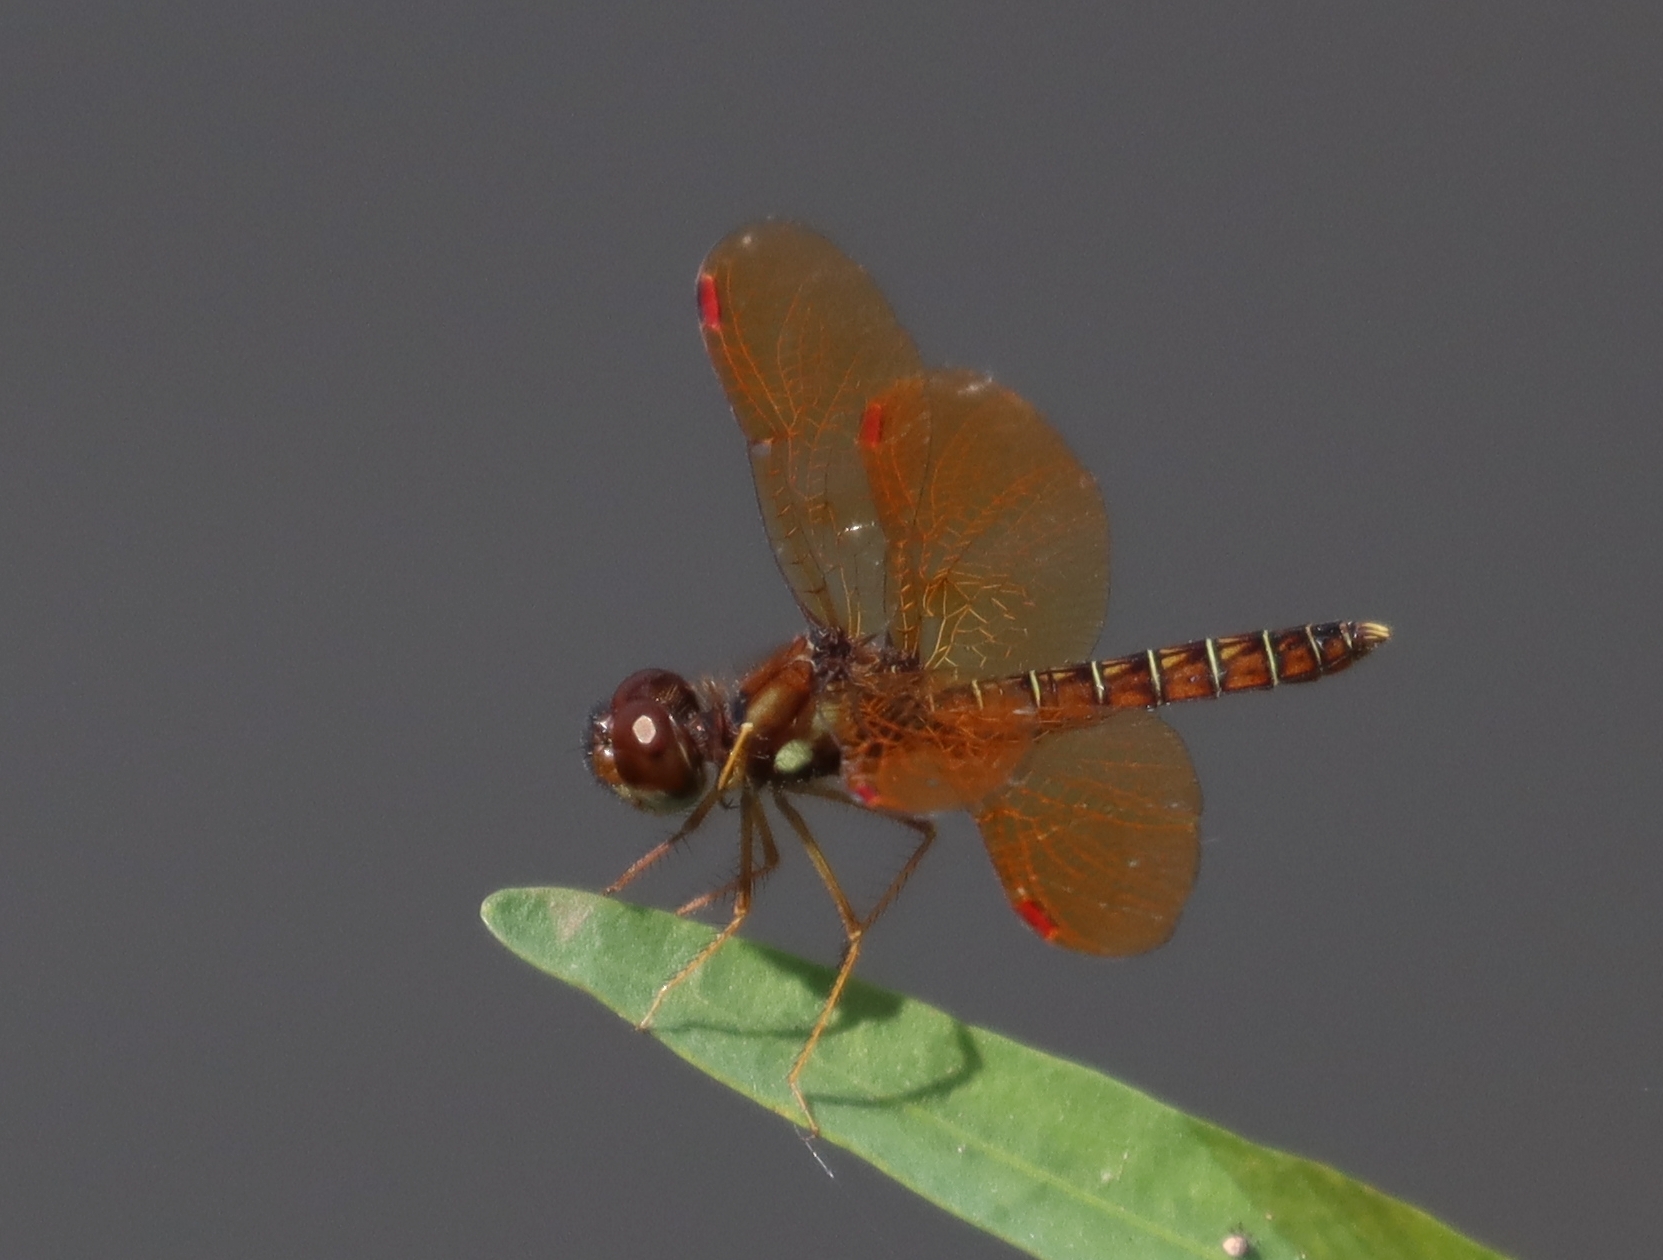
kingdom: Animalia
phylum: Arthropoda
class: Insecta
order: Odonata
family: Libellulidae
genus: Perithemis
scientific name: Perithemis tenera
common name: Eastern amberwing
